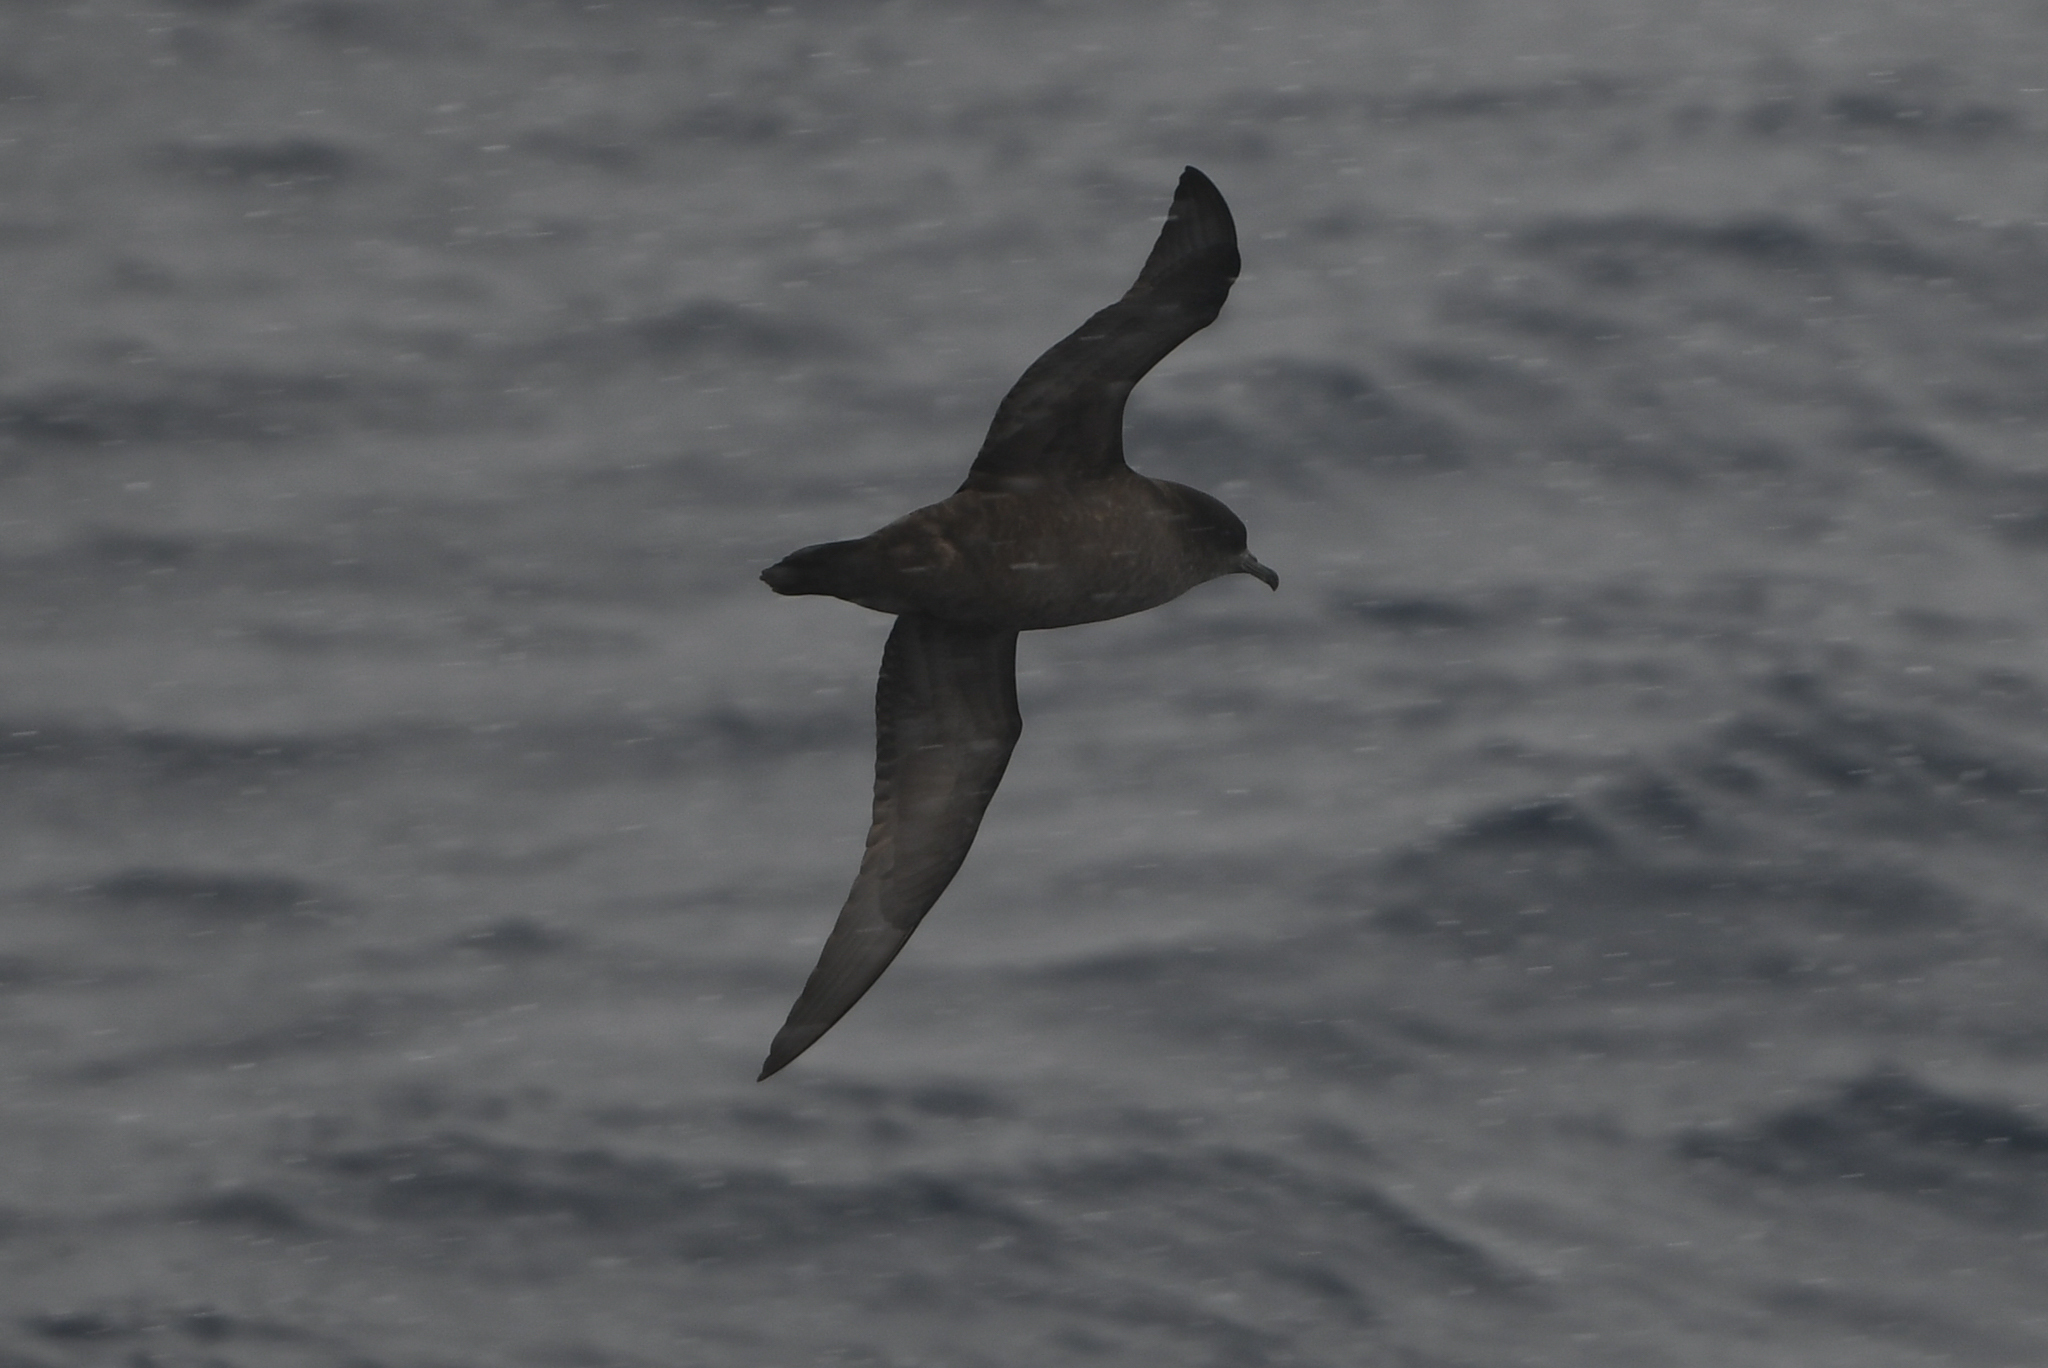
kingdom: Animalia
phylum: Chordata
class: Aves
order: Procellariiformes
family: Procellariidae
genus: Puffinus
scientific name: Puffinus tenuirostris
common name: Short-tailed shearwater
